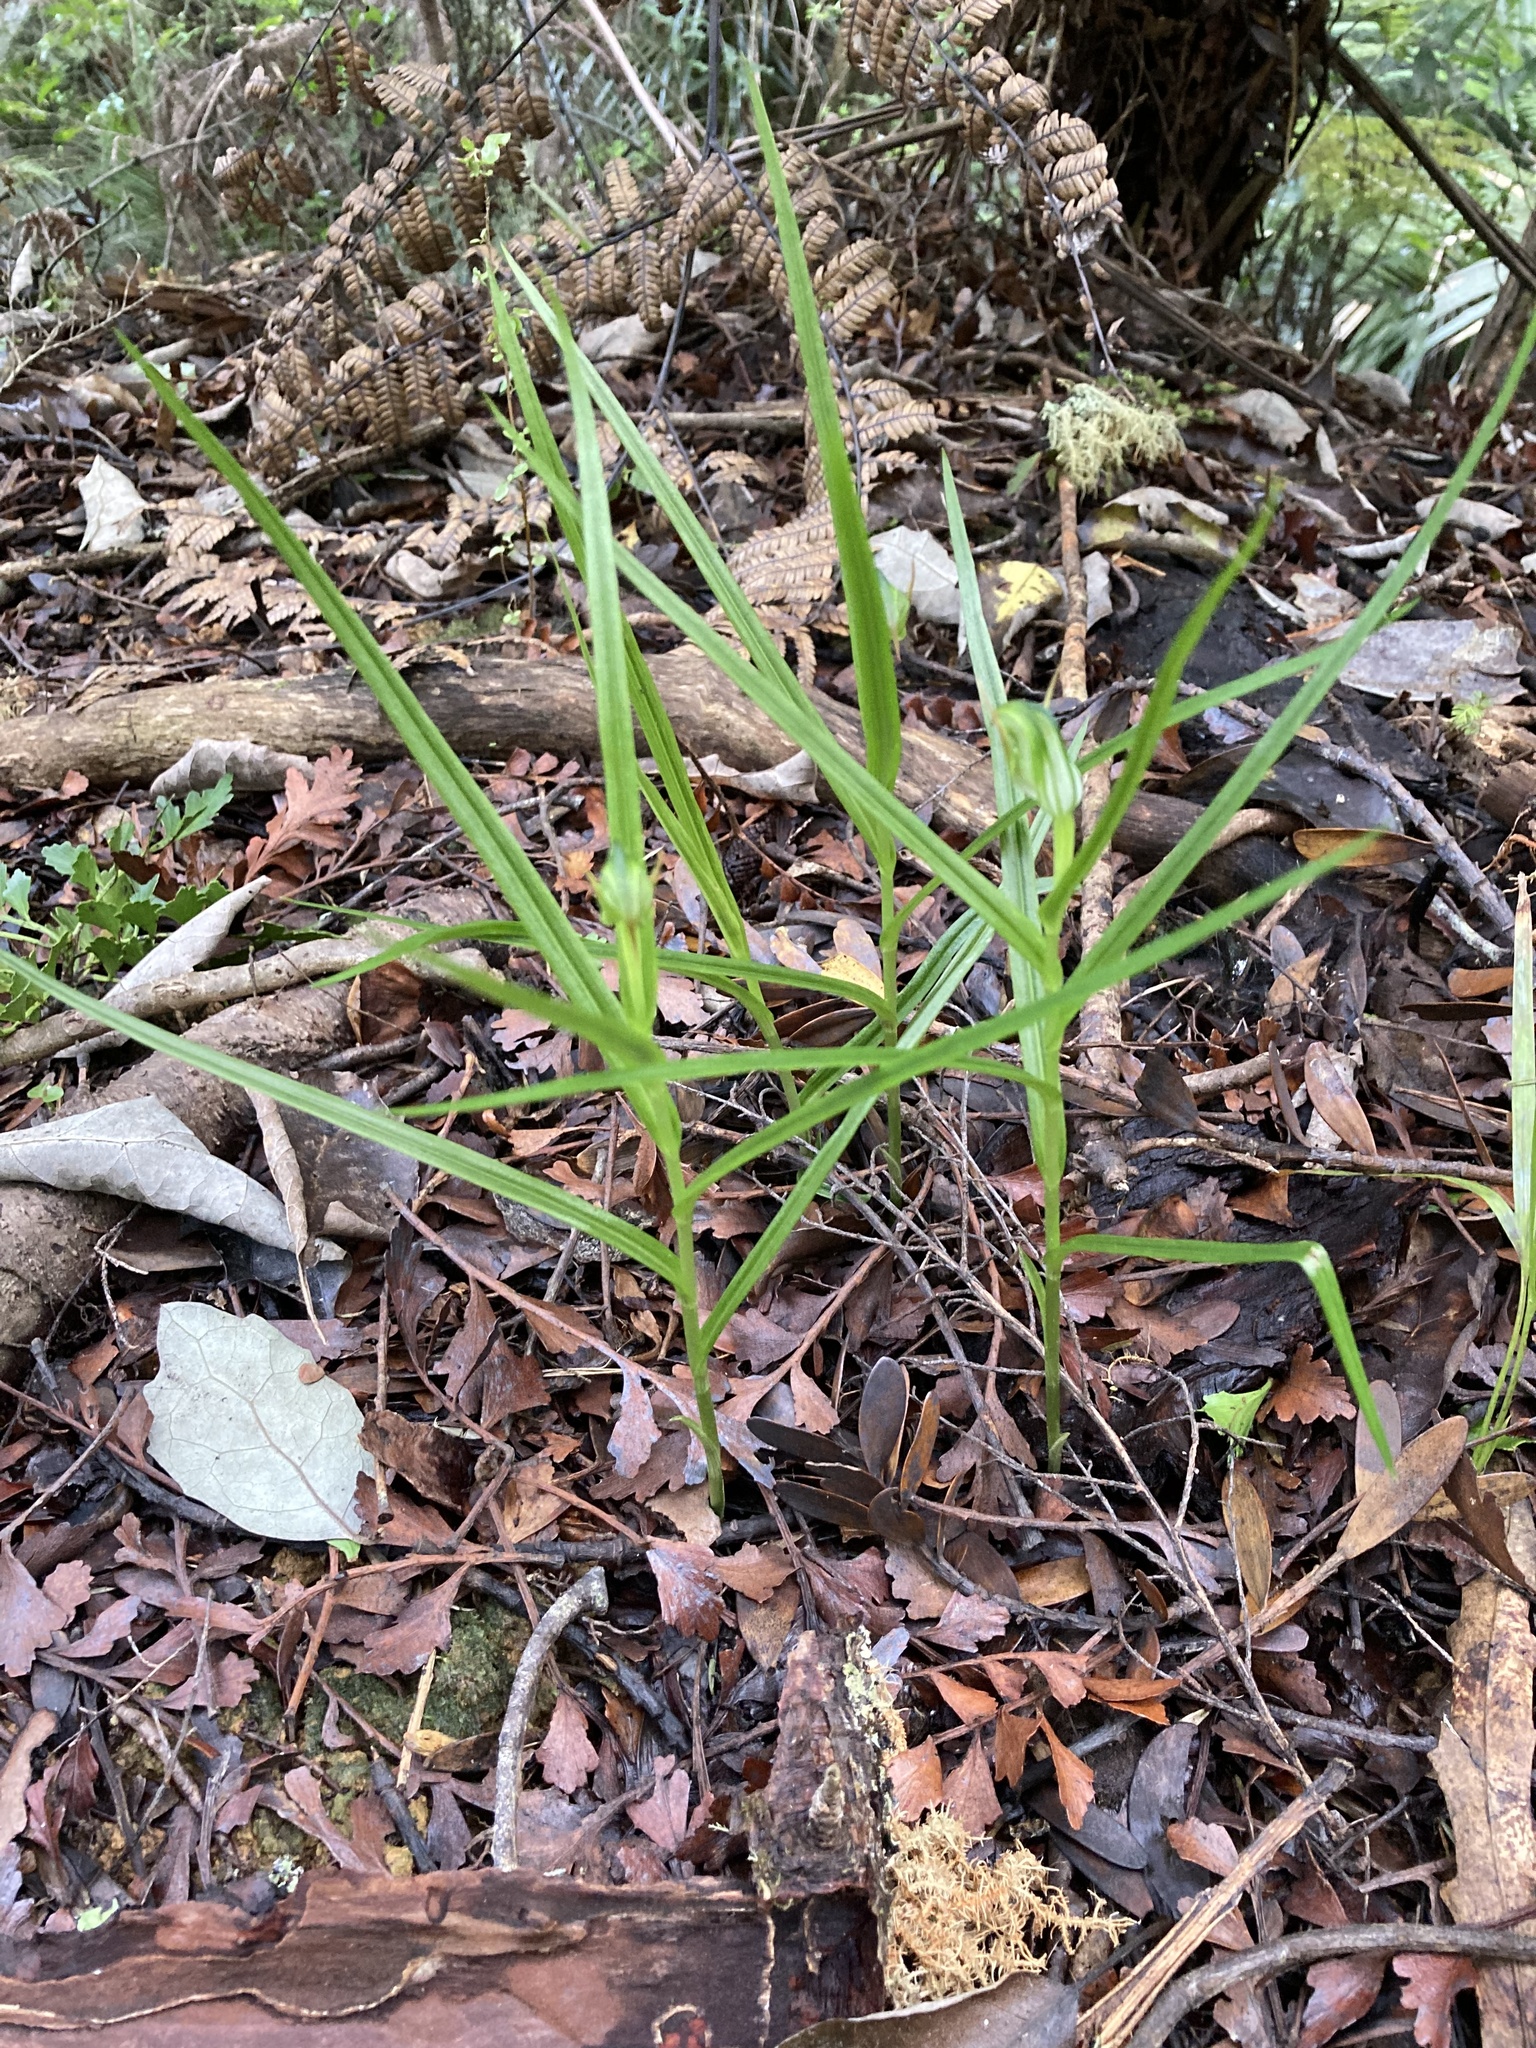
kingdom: Plantae
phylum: Tracheophyta
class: Liliopsida
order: Asparagales
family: Orchidaceae
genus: Pterostylis
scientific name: Pterostylis graminea
